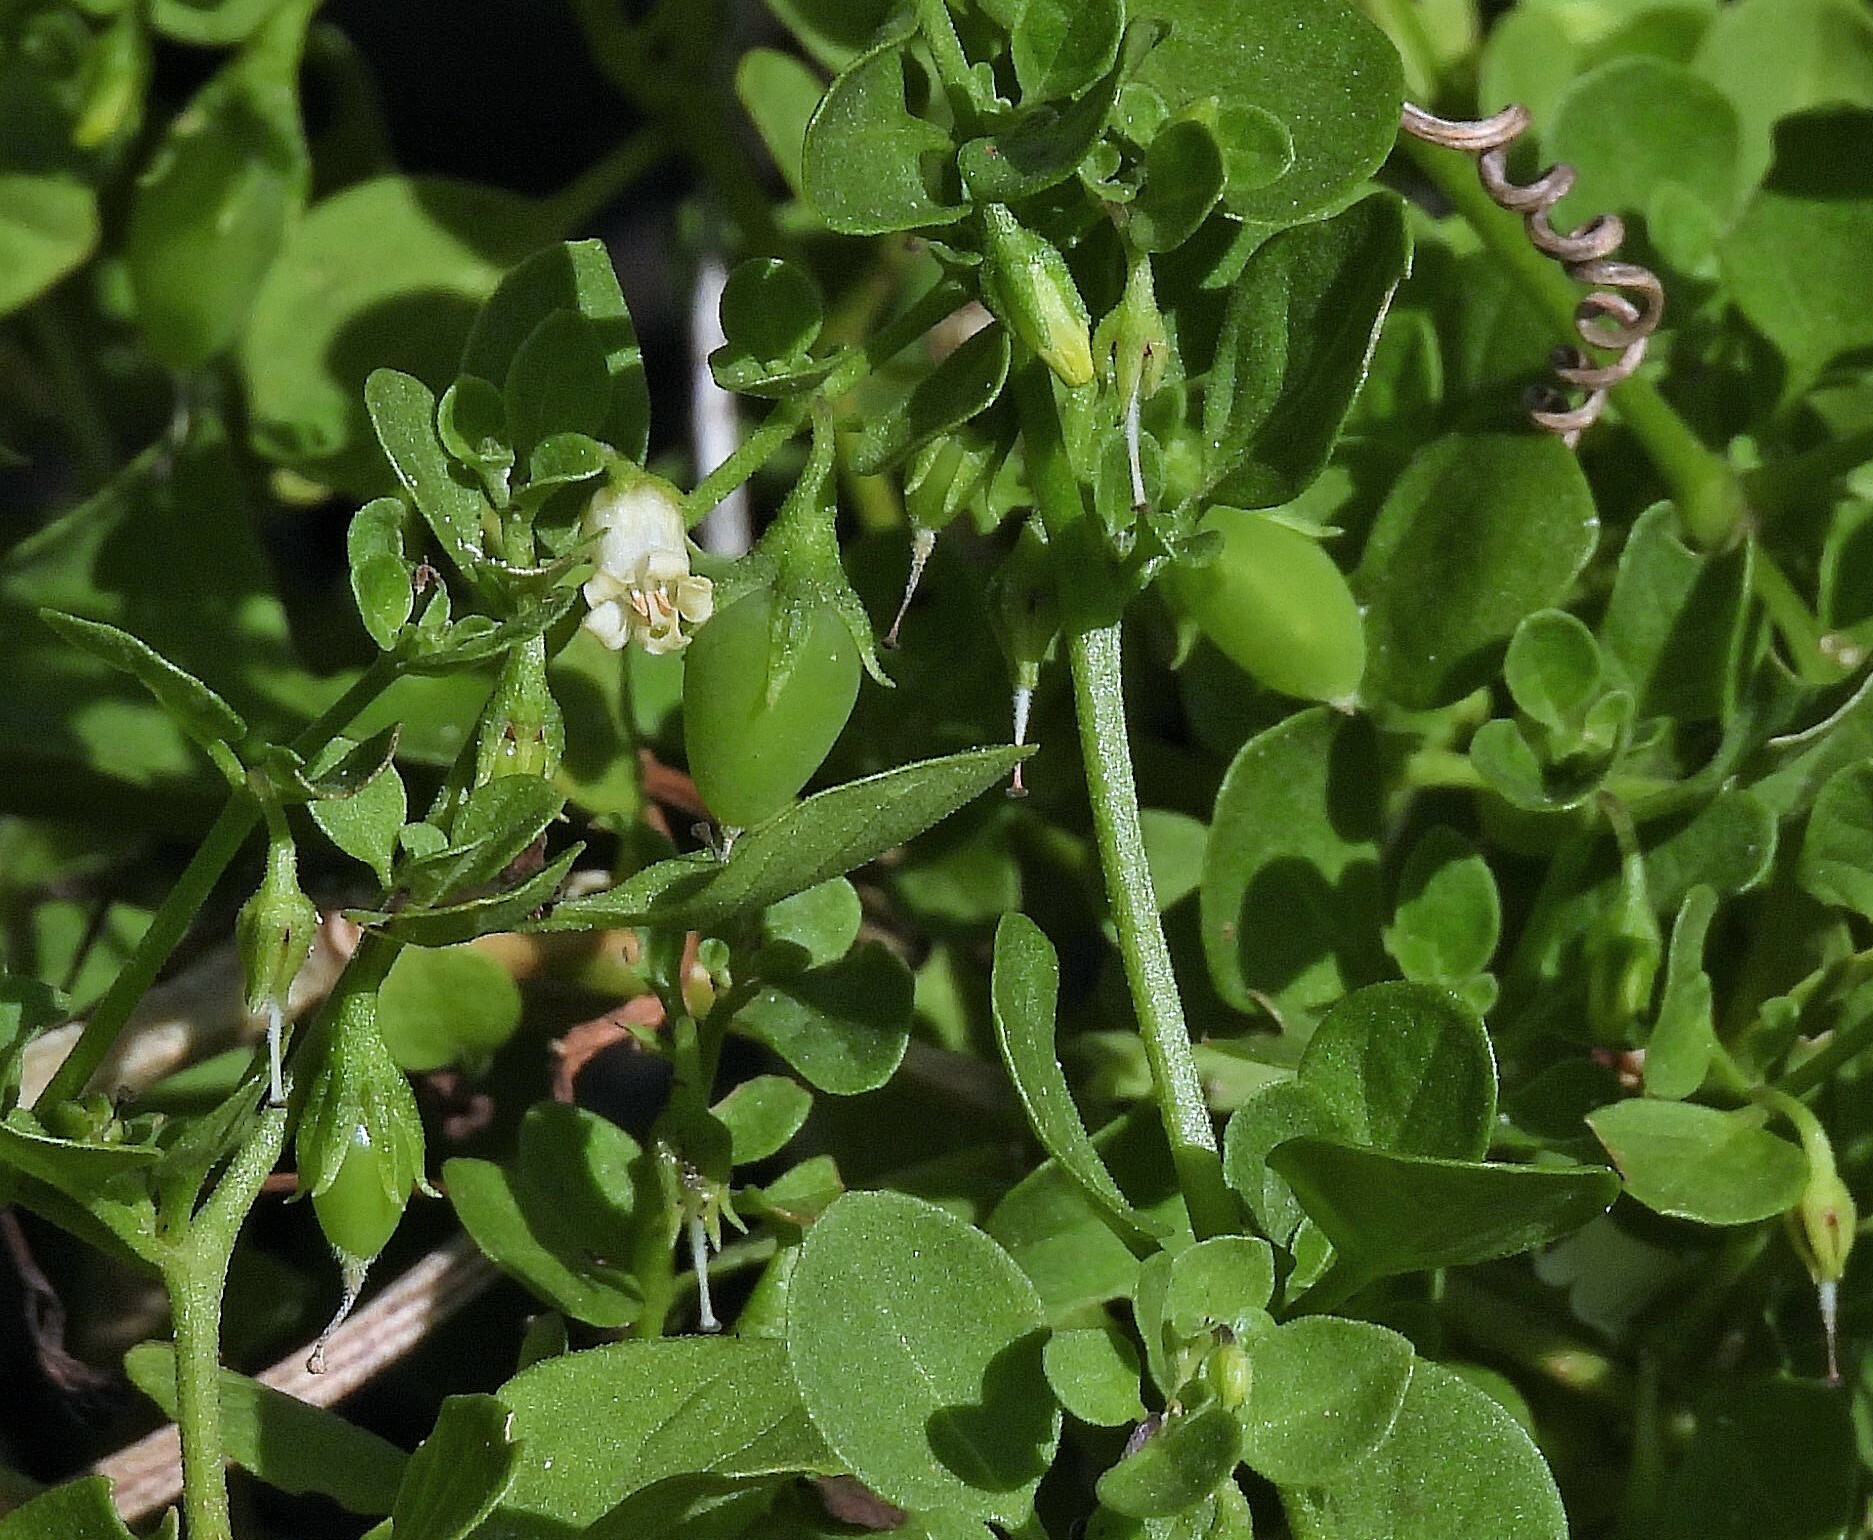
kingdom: Plantae
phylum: Tracheophyta
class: Magnoliopsida
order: Solanales
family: Solanaceae
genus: Salpichroa
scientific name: Salpichroa origanifolia
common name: Lily-of-the-valley-vine
